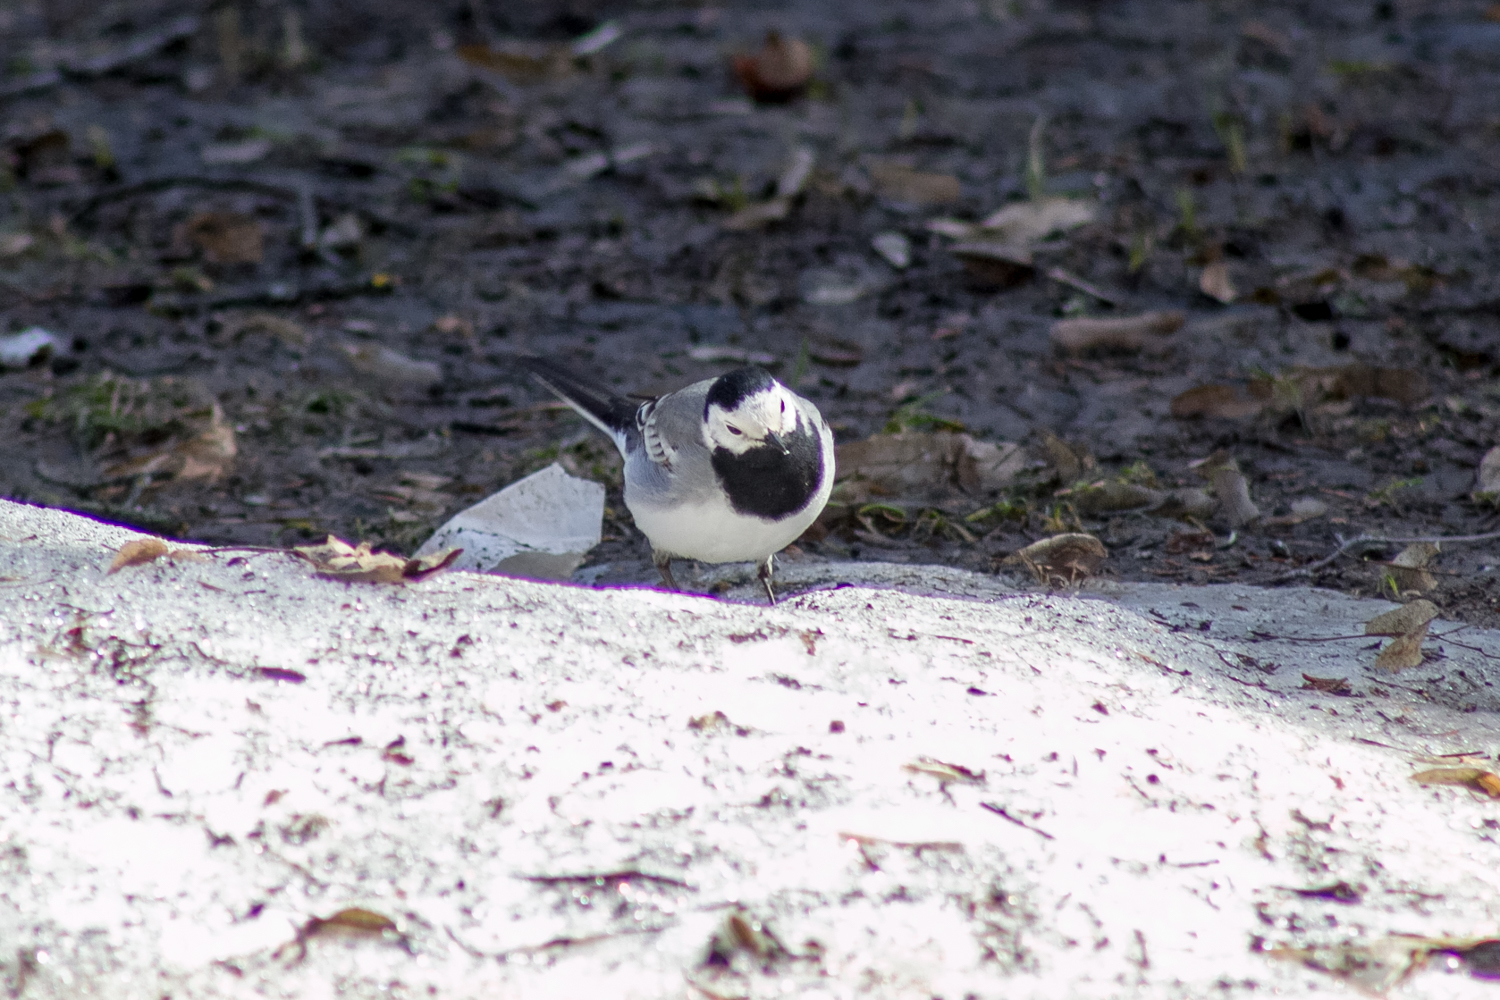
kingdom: Animalia
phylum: Chordata
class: Aves
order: Passeriformes
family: Motacillidae
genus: Motacilla
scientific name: Motacilla alba
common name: White wagtail
